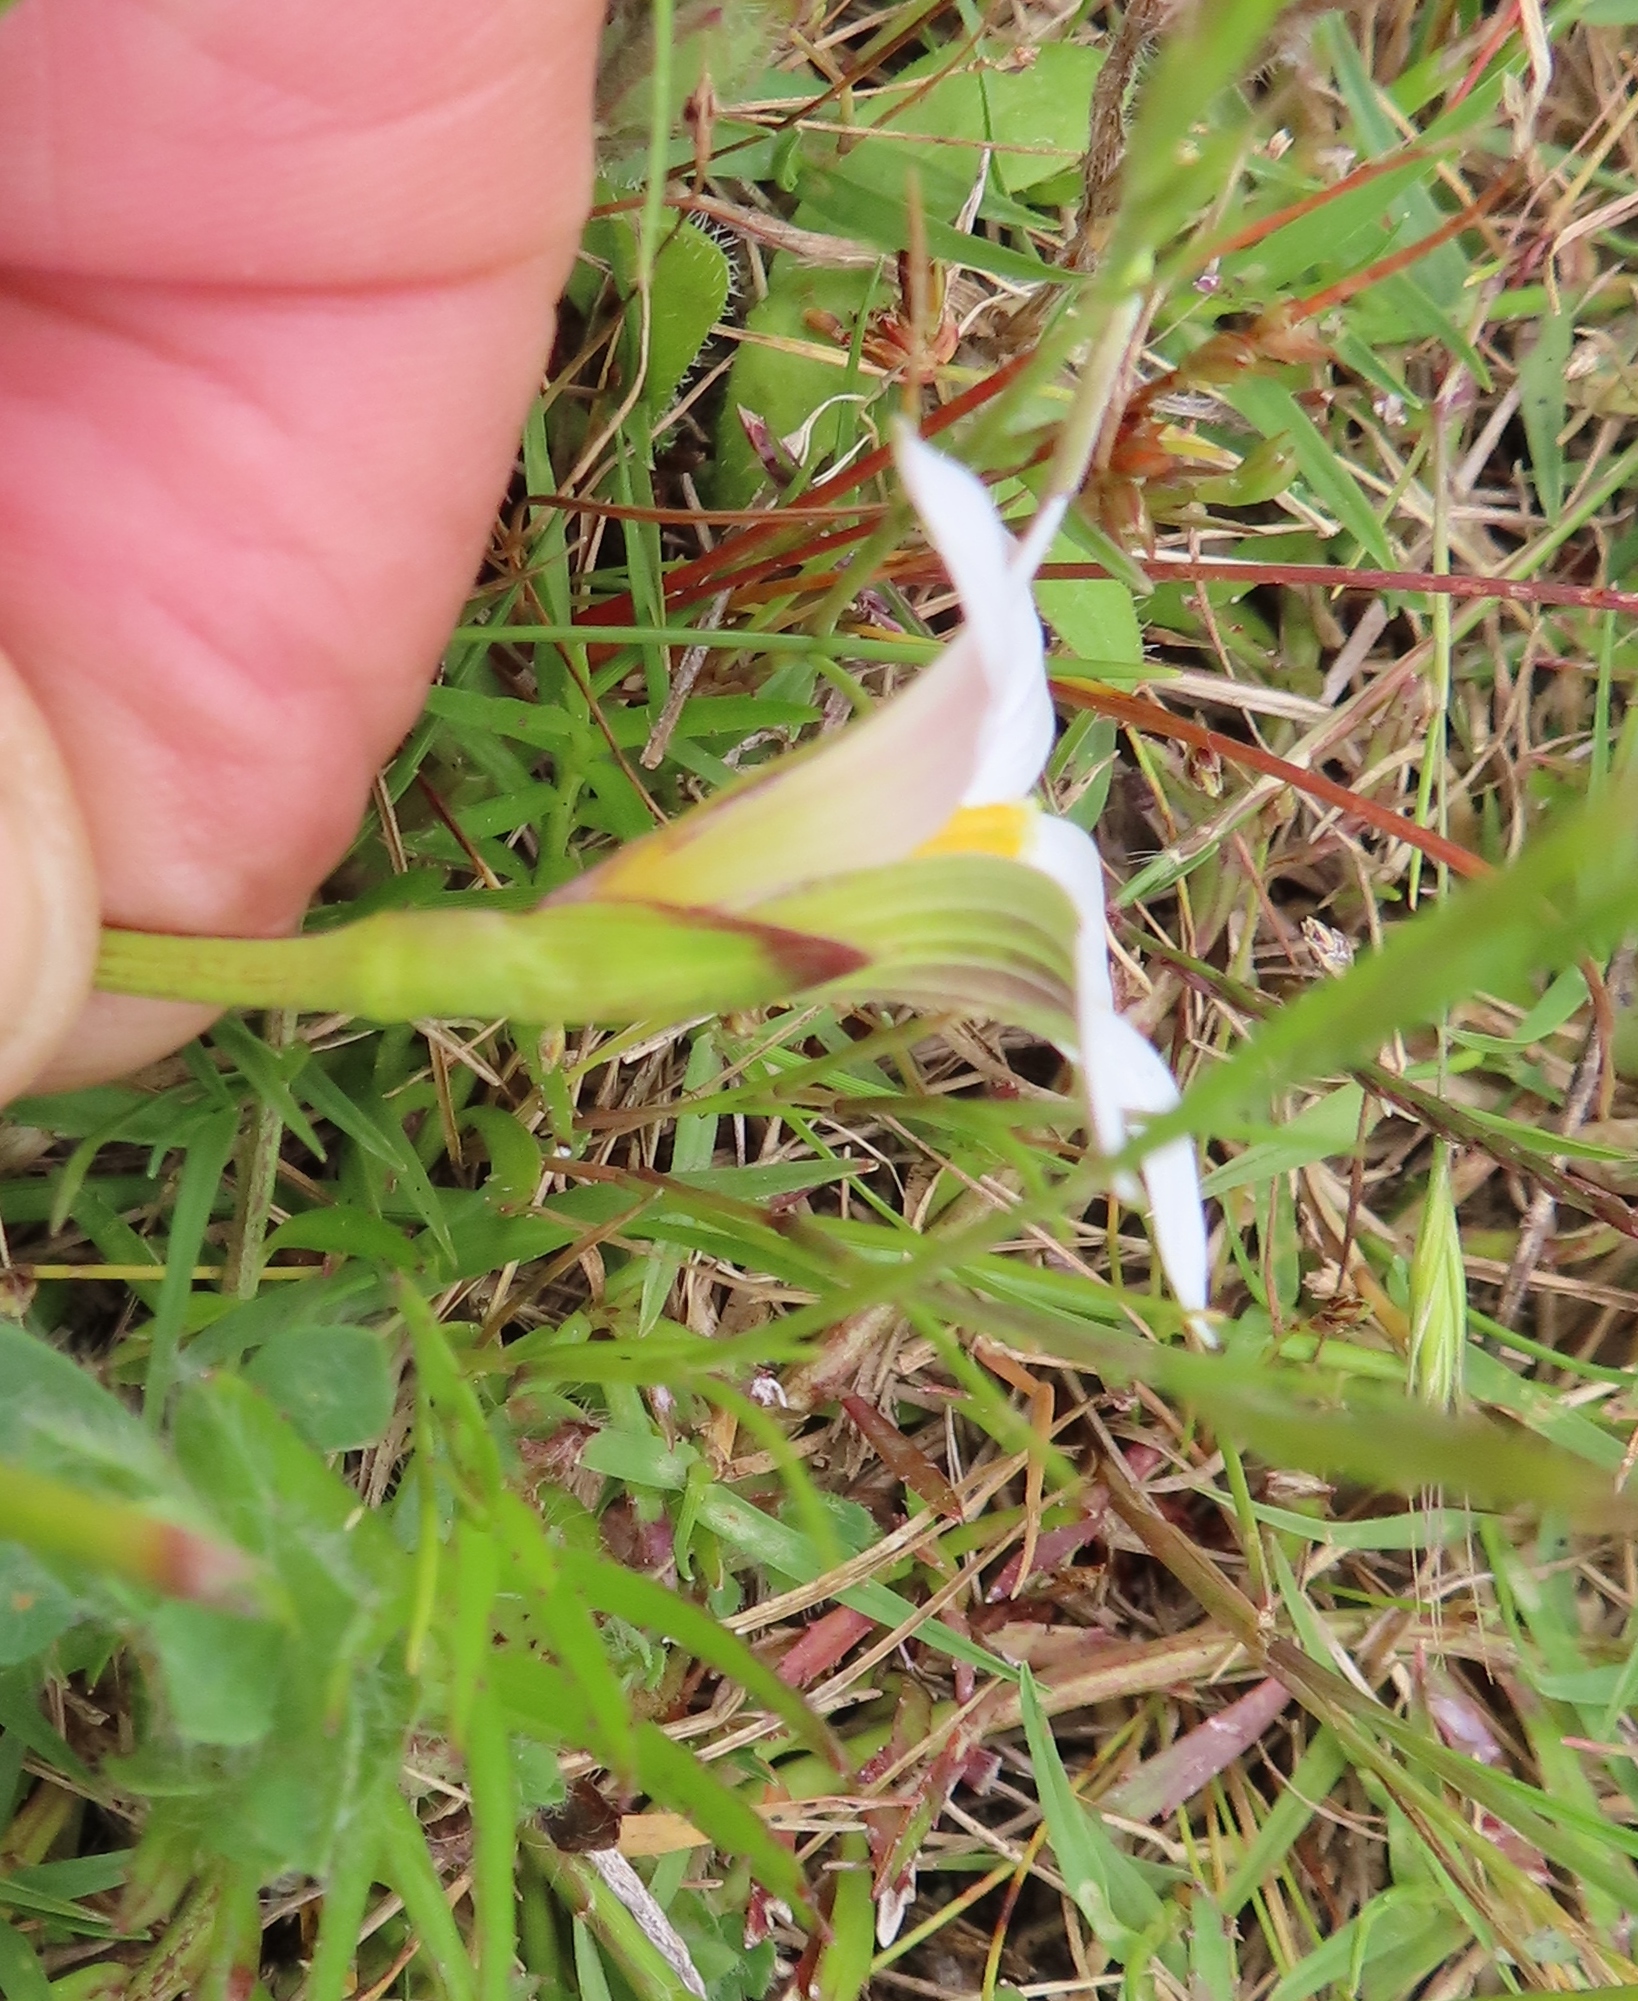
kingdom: Plantae
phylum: Tracheophyta
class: Liliopsida
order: Asparagales
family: Iridaceae
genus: Romulea
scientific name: Romulea flava
